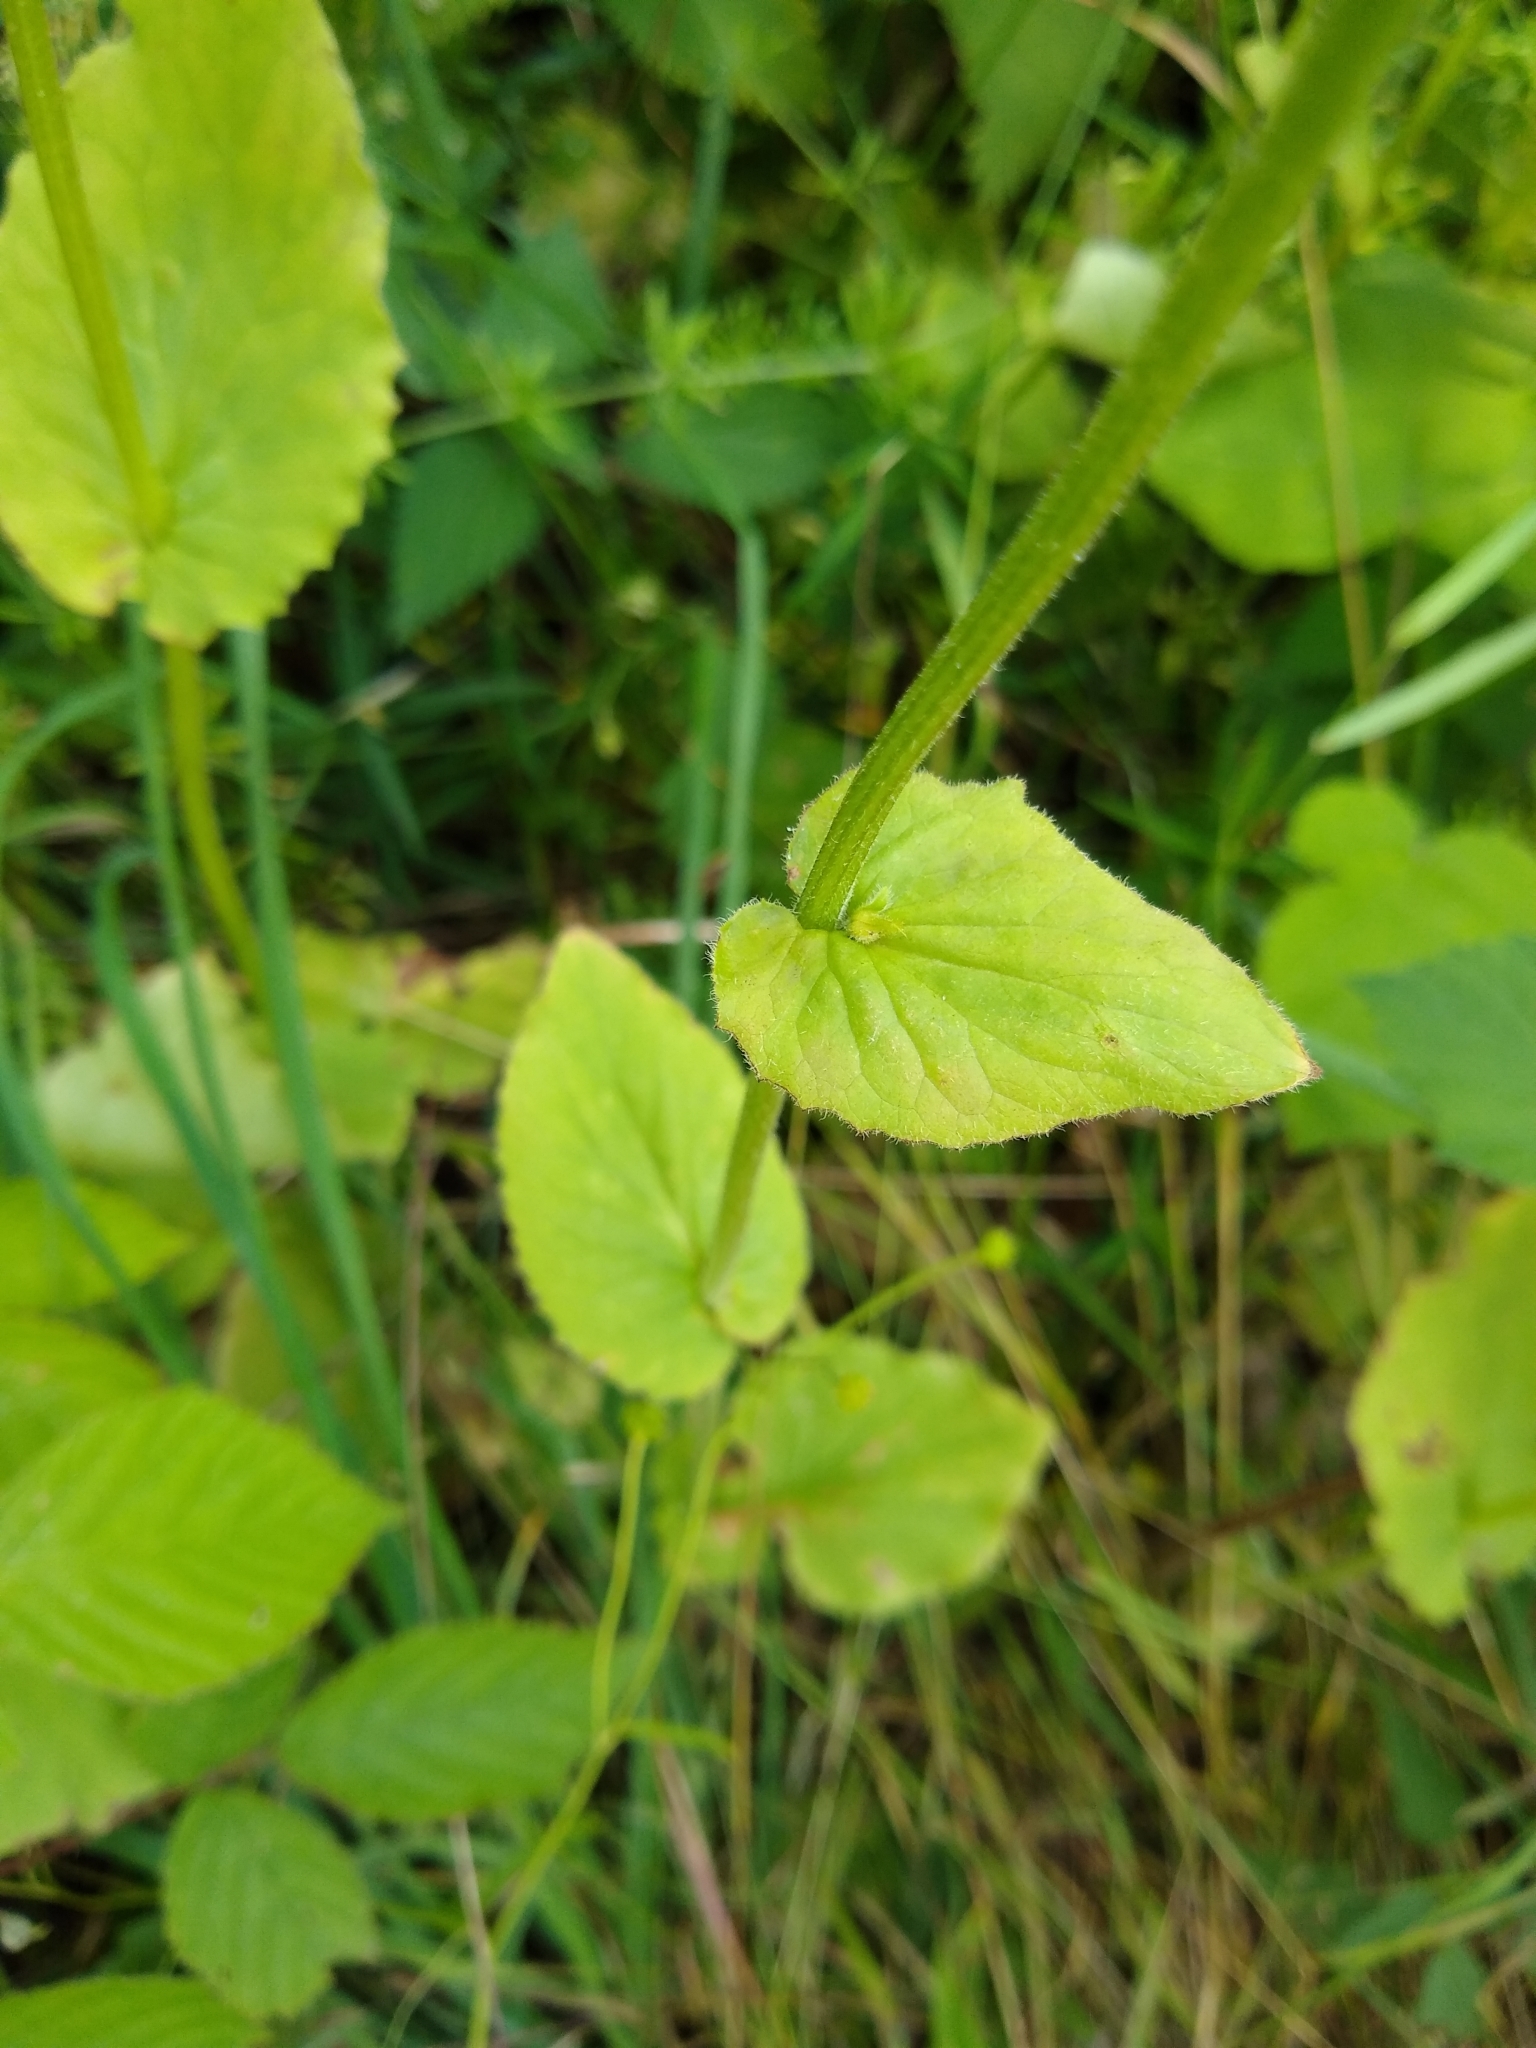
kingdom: Plantae
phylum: Tracheophyta
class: Magnoliopsida
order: Asterales
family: Asteraceae
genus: Doronicum
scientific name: Doronicum pardalianches
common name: Leopard's-bane
